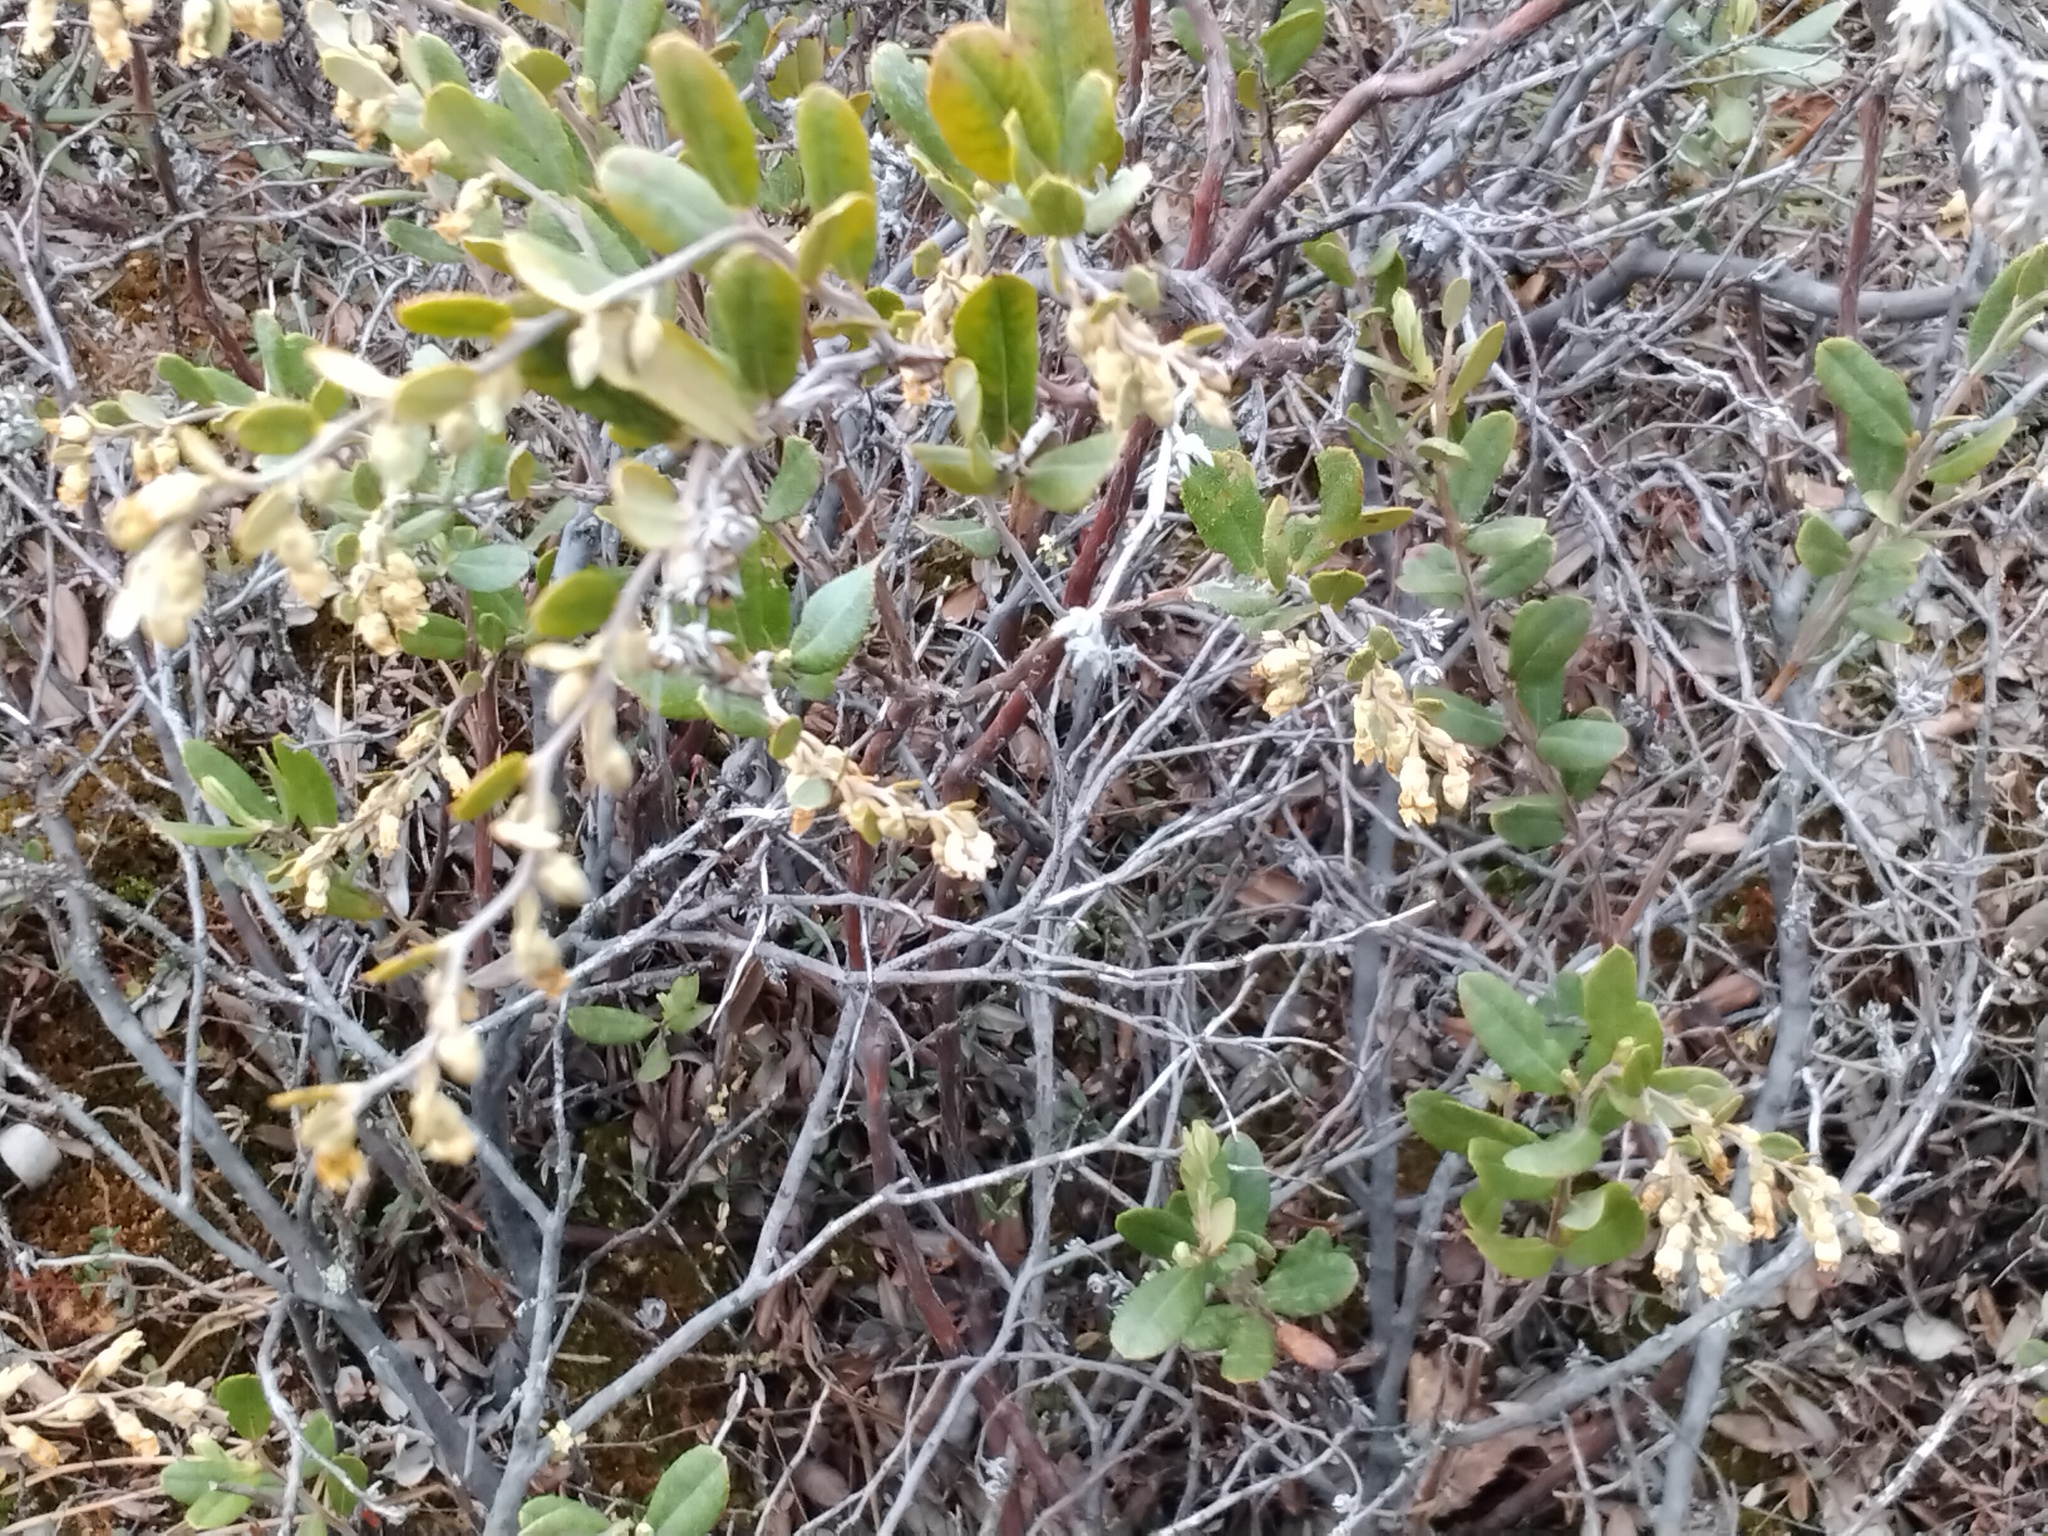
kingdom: Plantae
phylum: Tracheophyta
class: Magnoliopsida
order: Ericales
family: Ericaceae
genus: Chamaedaphne
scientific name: Chamaedaphne calyculata
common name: Leatherleaf
